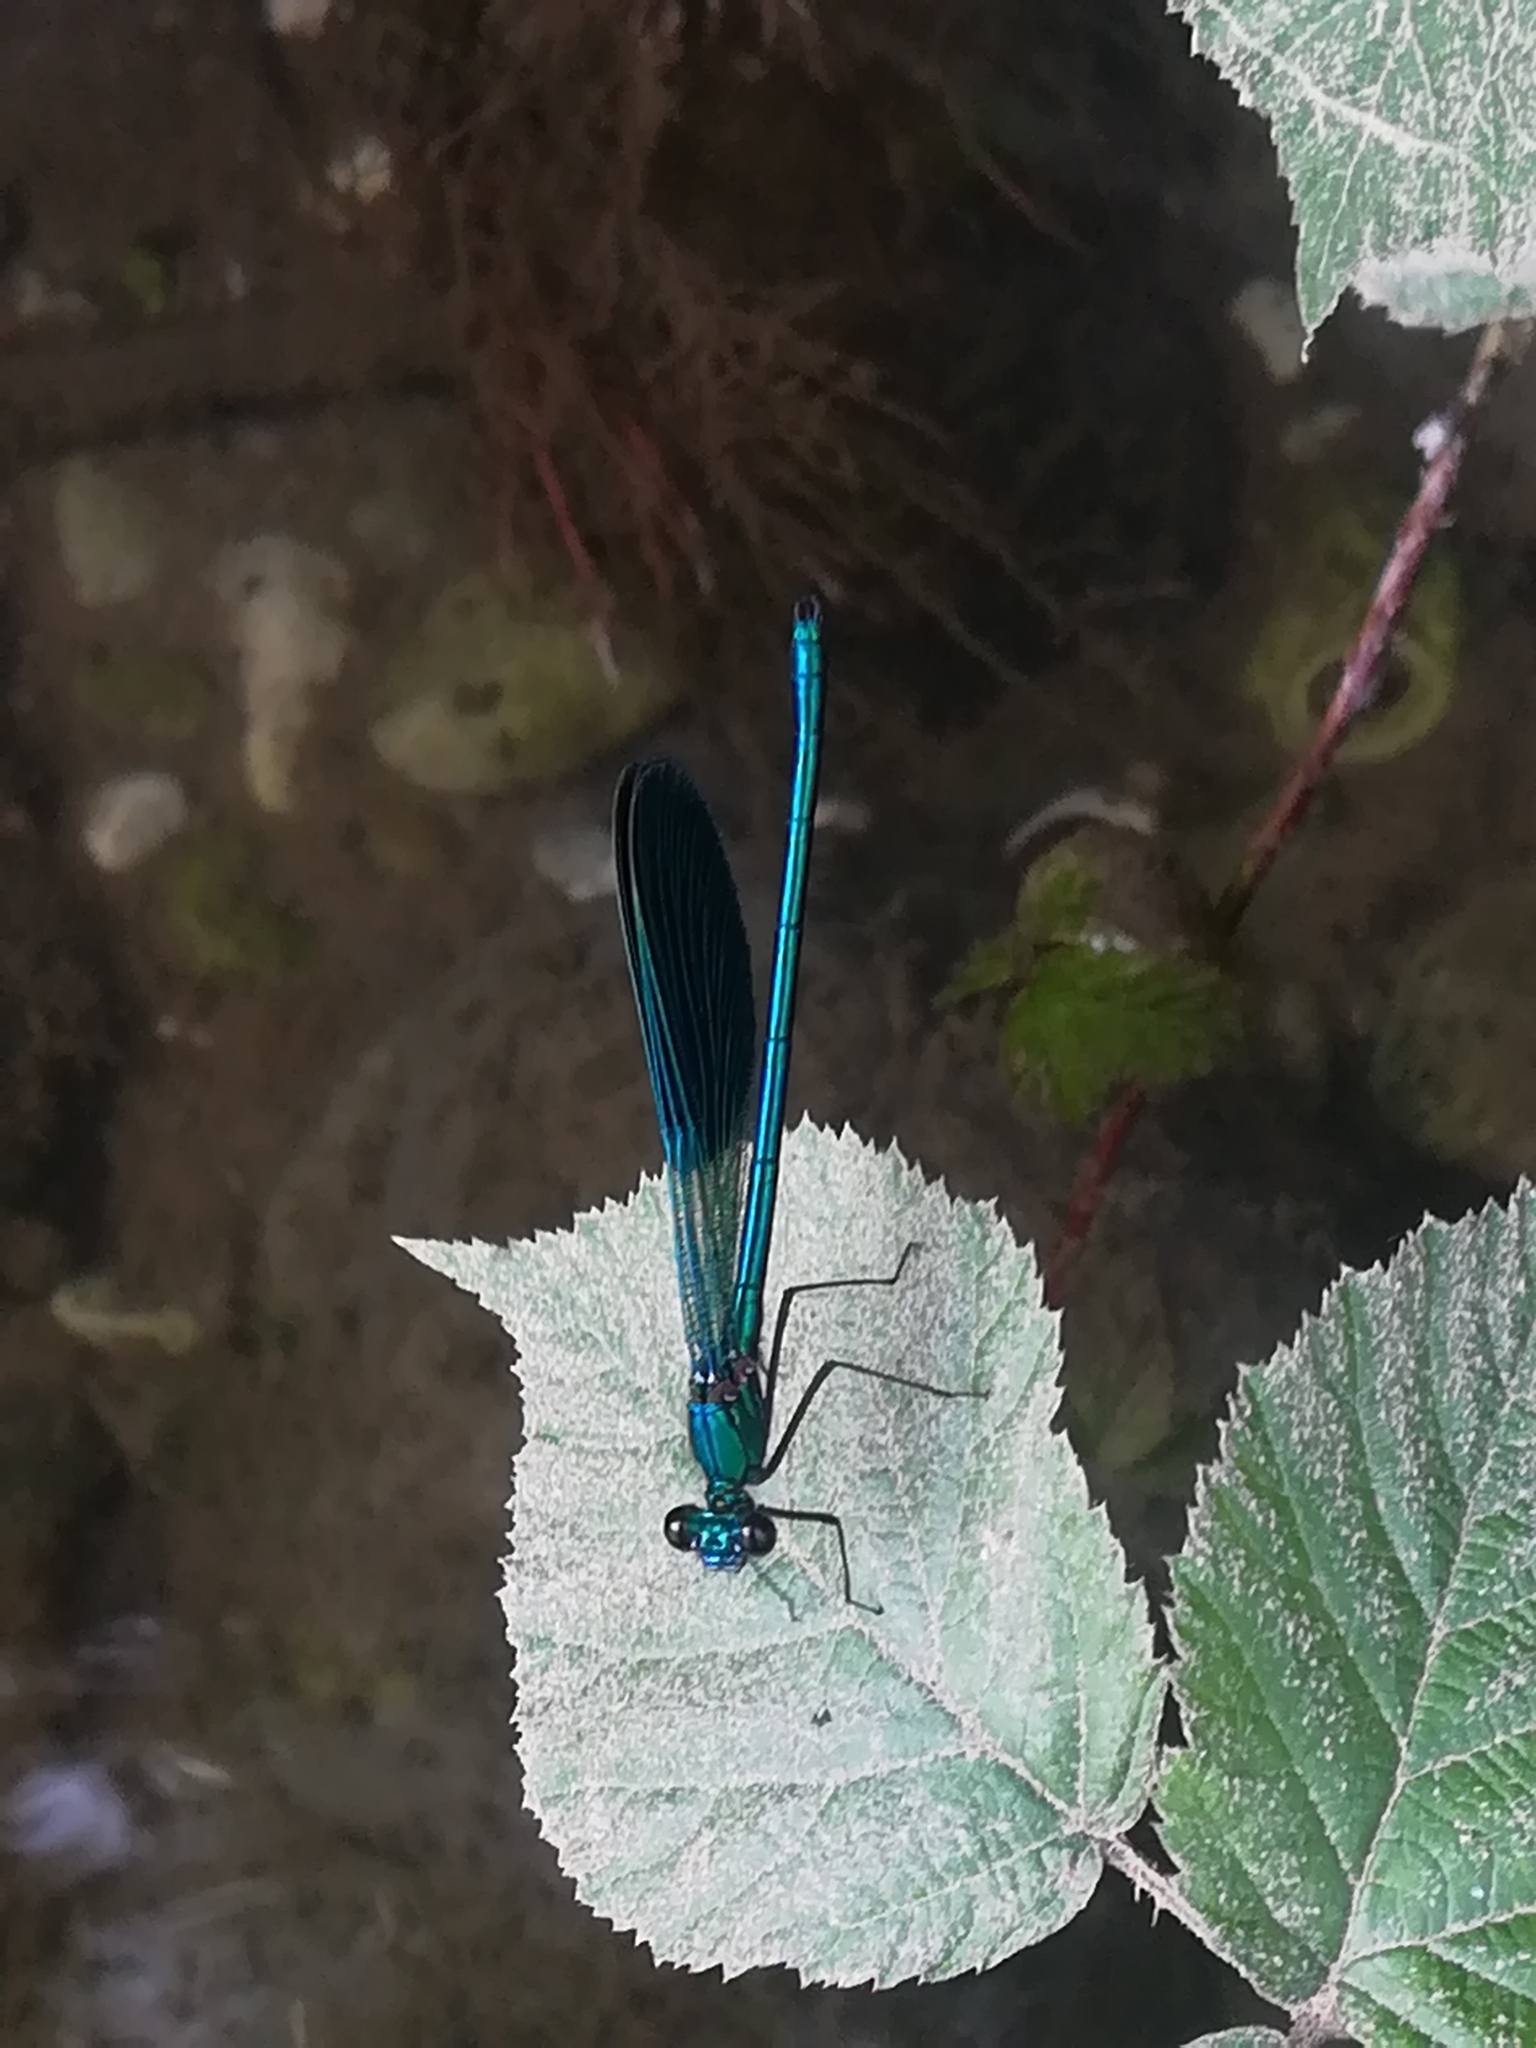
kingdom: Animalia
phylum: Arthropoda
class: Insecta
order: Odonata
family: Calopterygidae
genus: Calopteryx
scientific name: Calopteryx splendens
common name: Banded demoiselle
